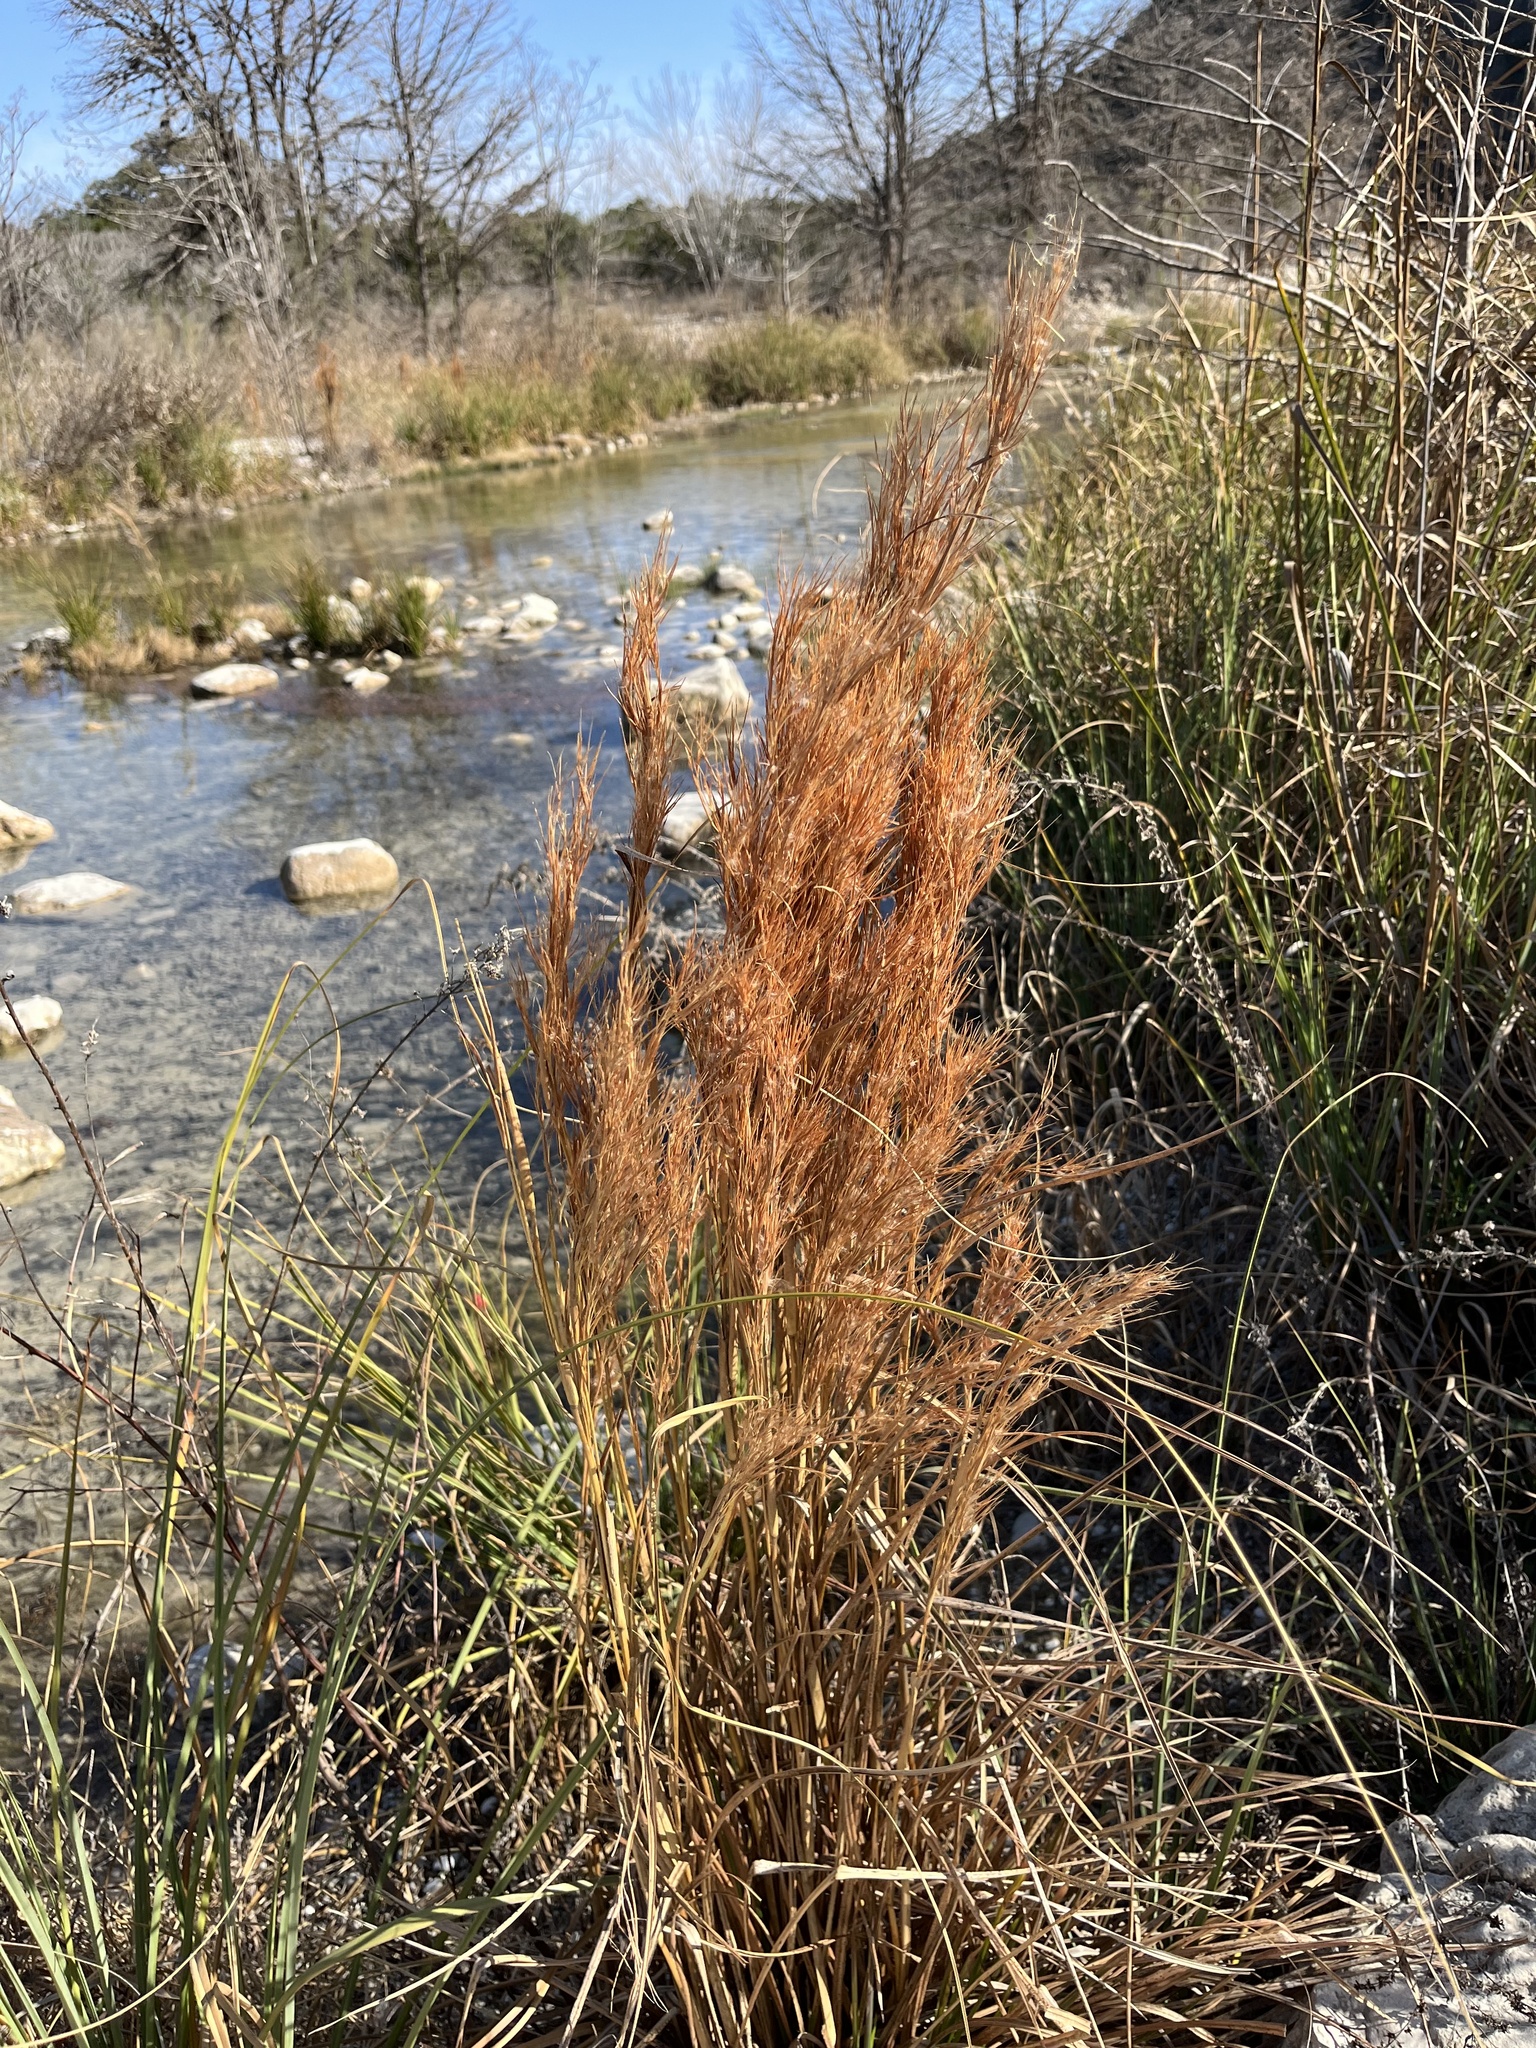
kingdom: Plantae
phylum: Tracheophyta
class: Liliopsida
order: Poales
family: Poaceae
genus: Andropogon
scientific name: Andropogon tenuispatheus
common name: Bushy bluestem
